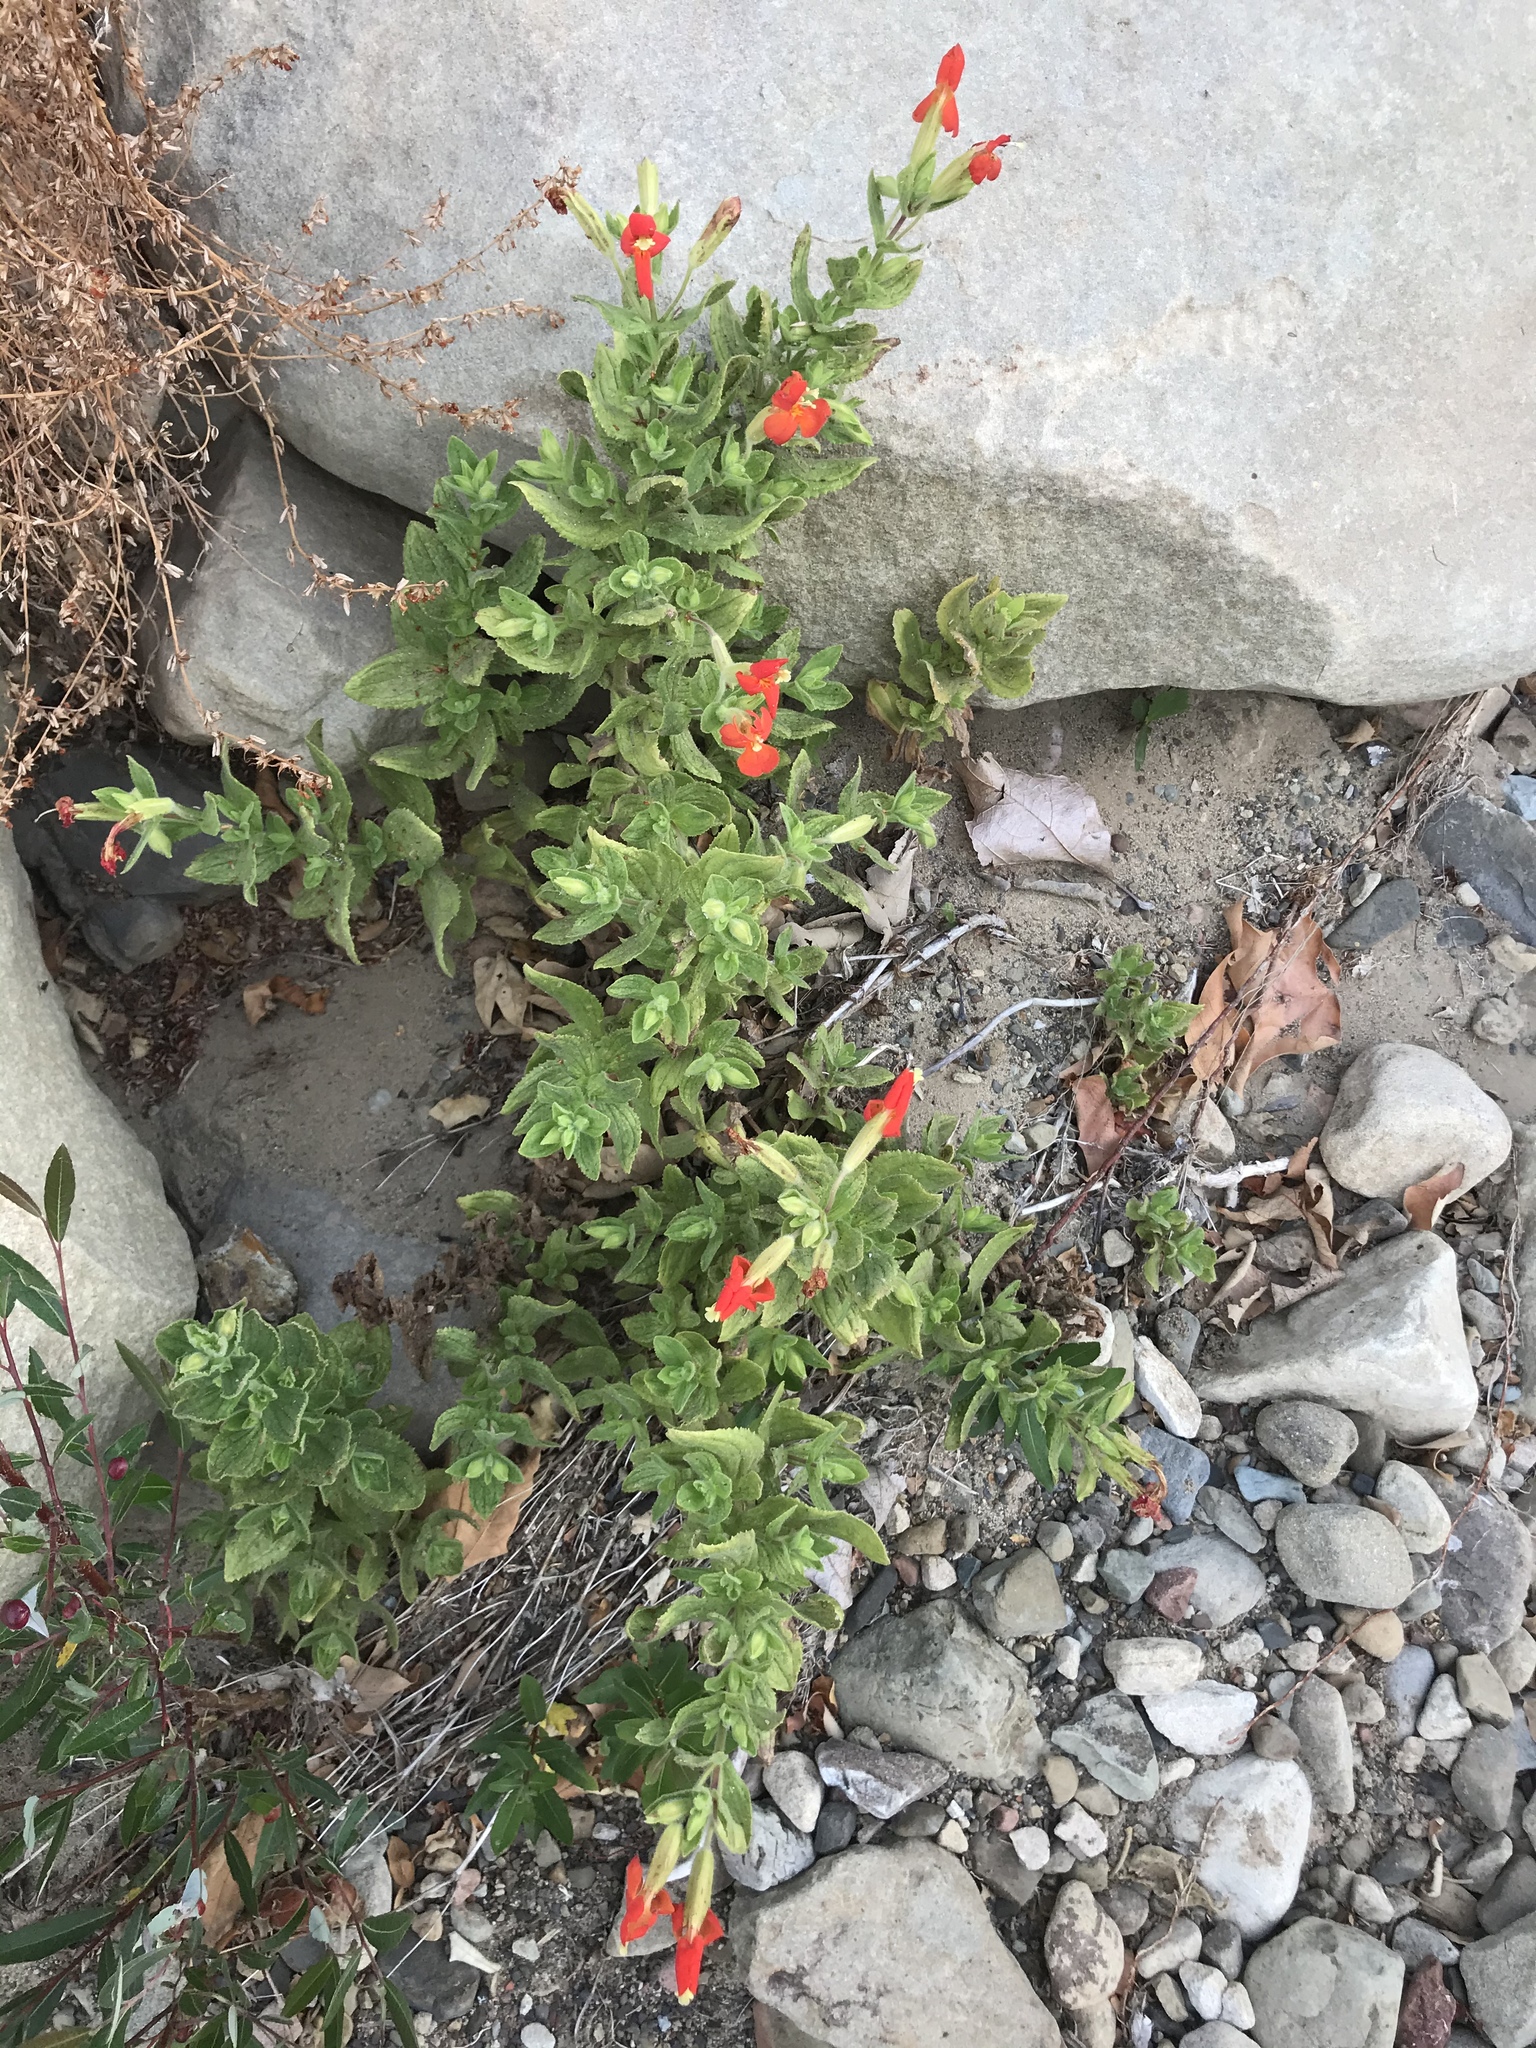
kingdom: Plantae
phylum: Tracheophyta
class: Magnoliopsida
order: Lamiales
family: Phrymaceae
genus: Erythranthe
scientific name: Erythranthe cardinalis
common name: Scarlet monkey-flower
